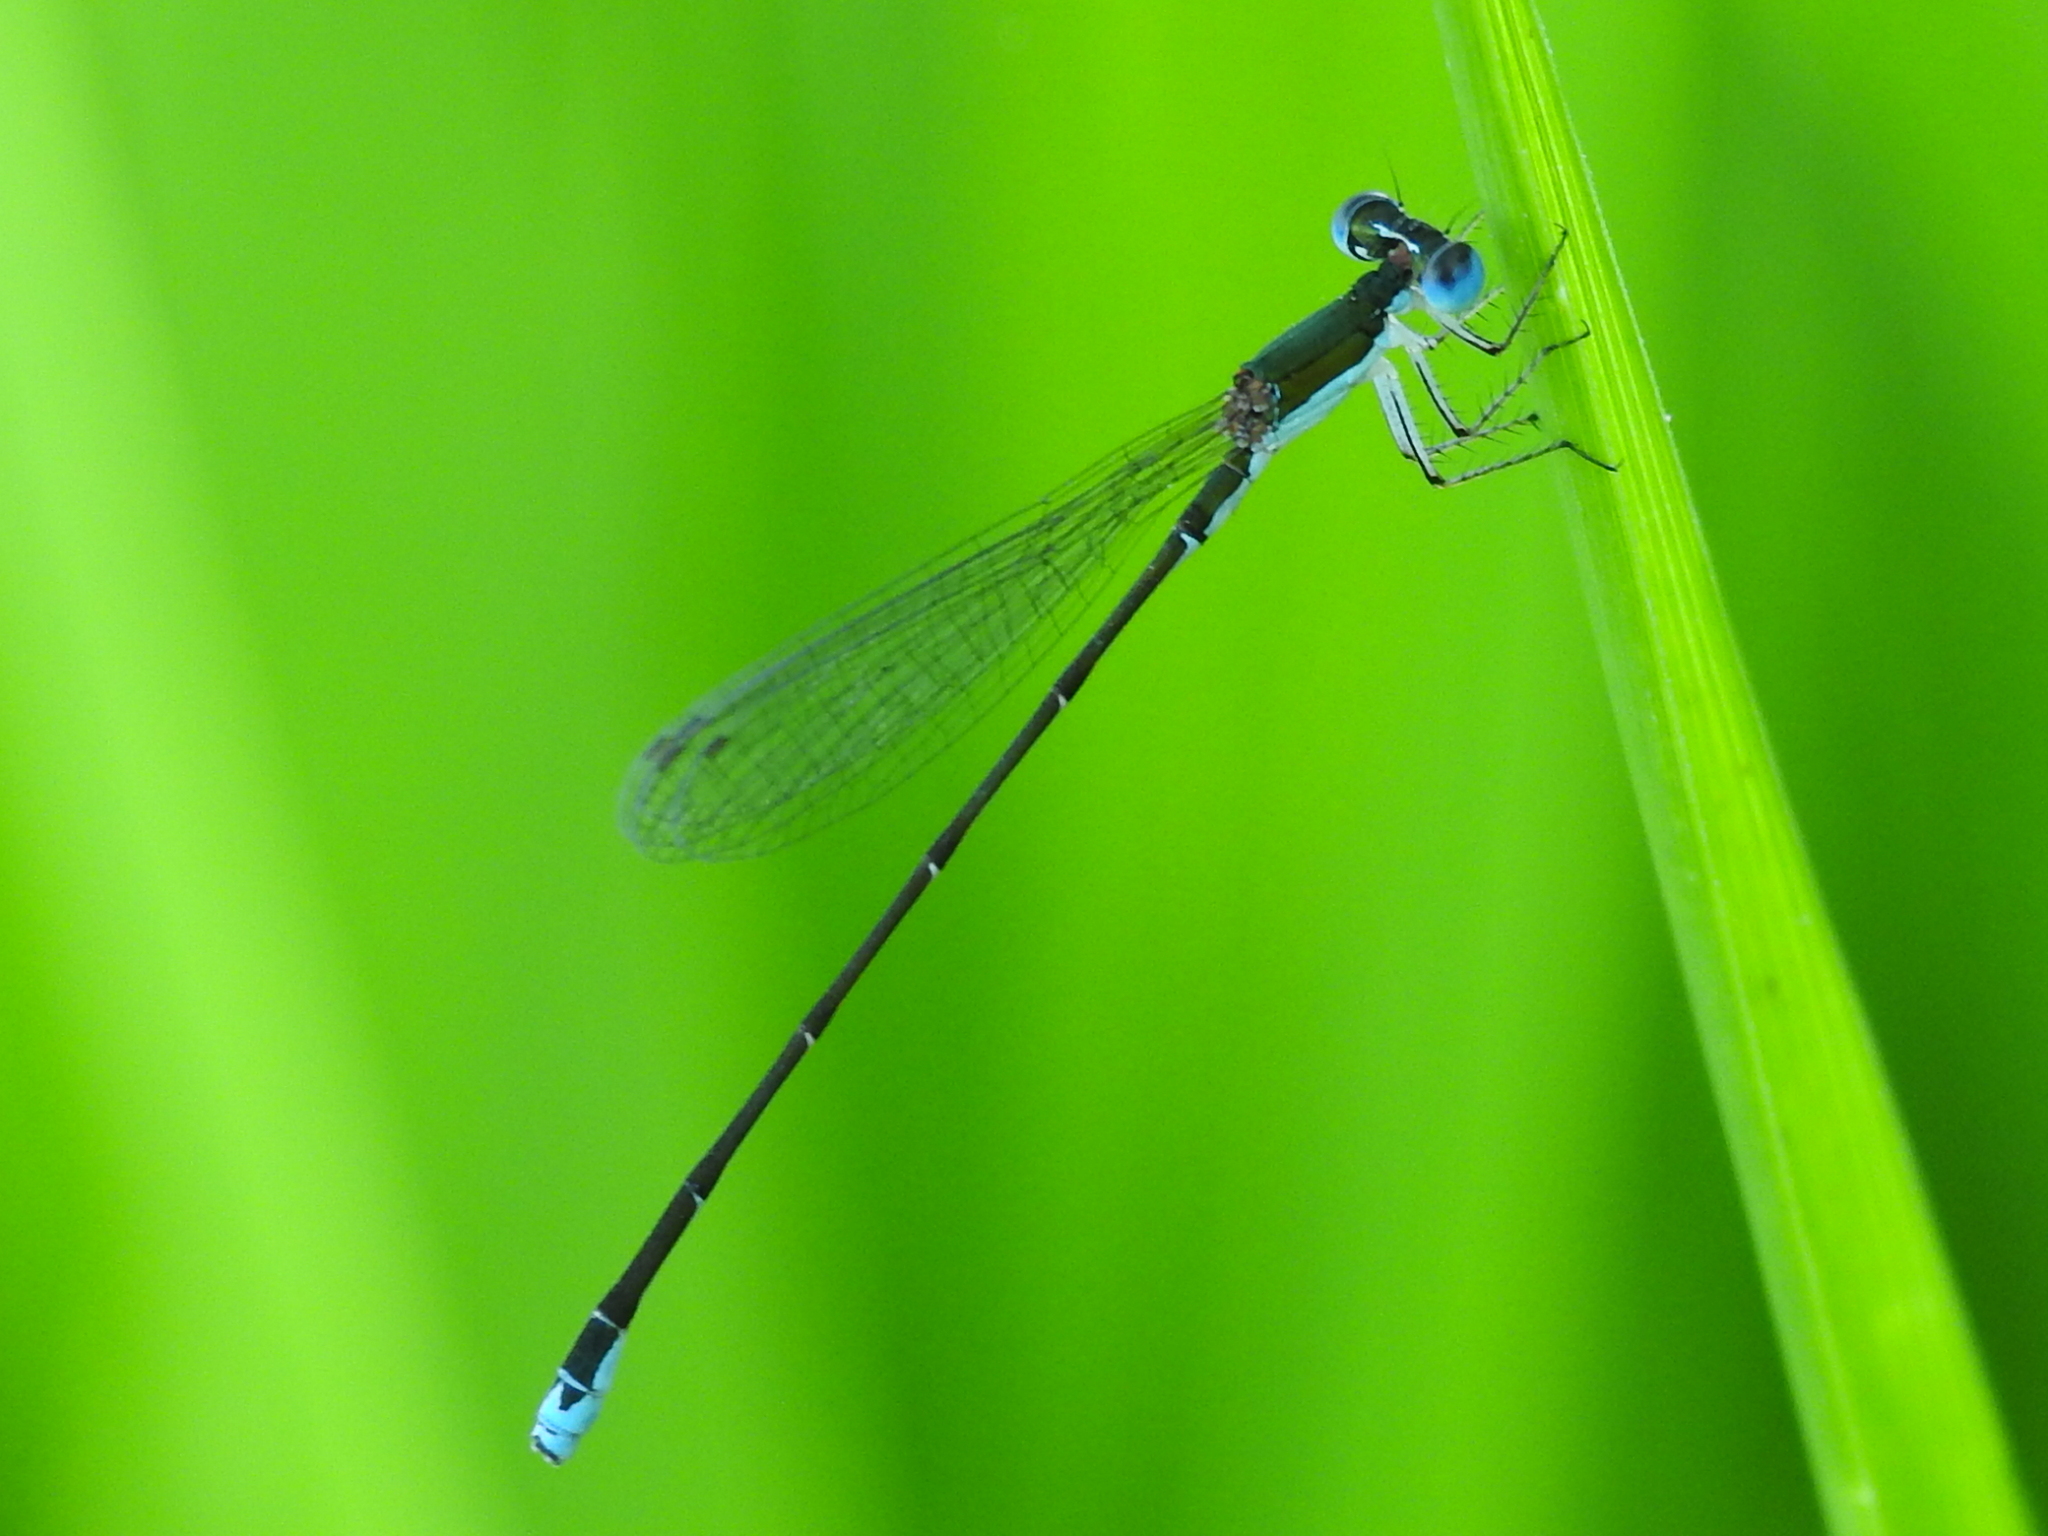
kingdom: Animalia
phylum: Arthropoda
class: Insecta
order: Odonata
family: Coenagrionidae
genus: Nehalennia
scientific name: Nehalennia integricollis
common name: Southern sprite
